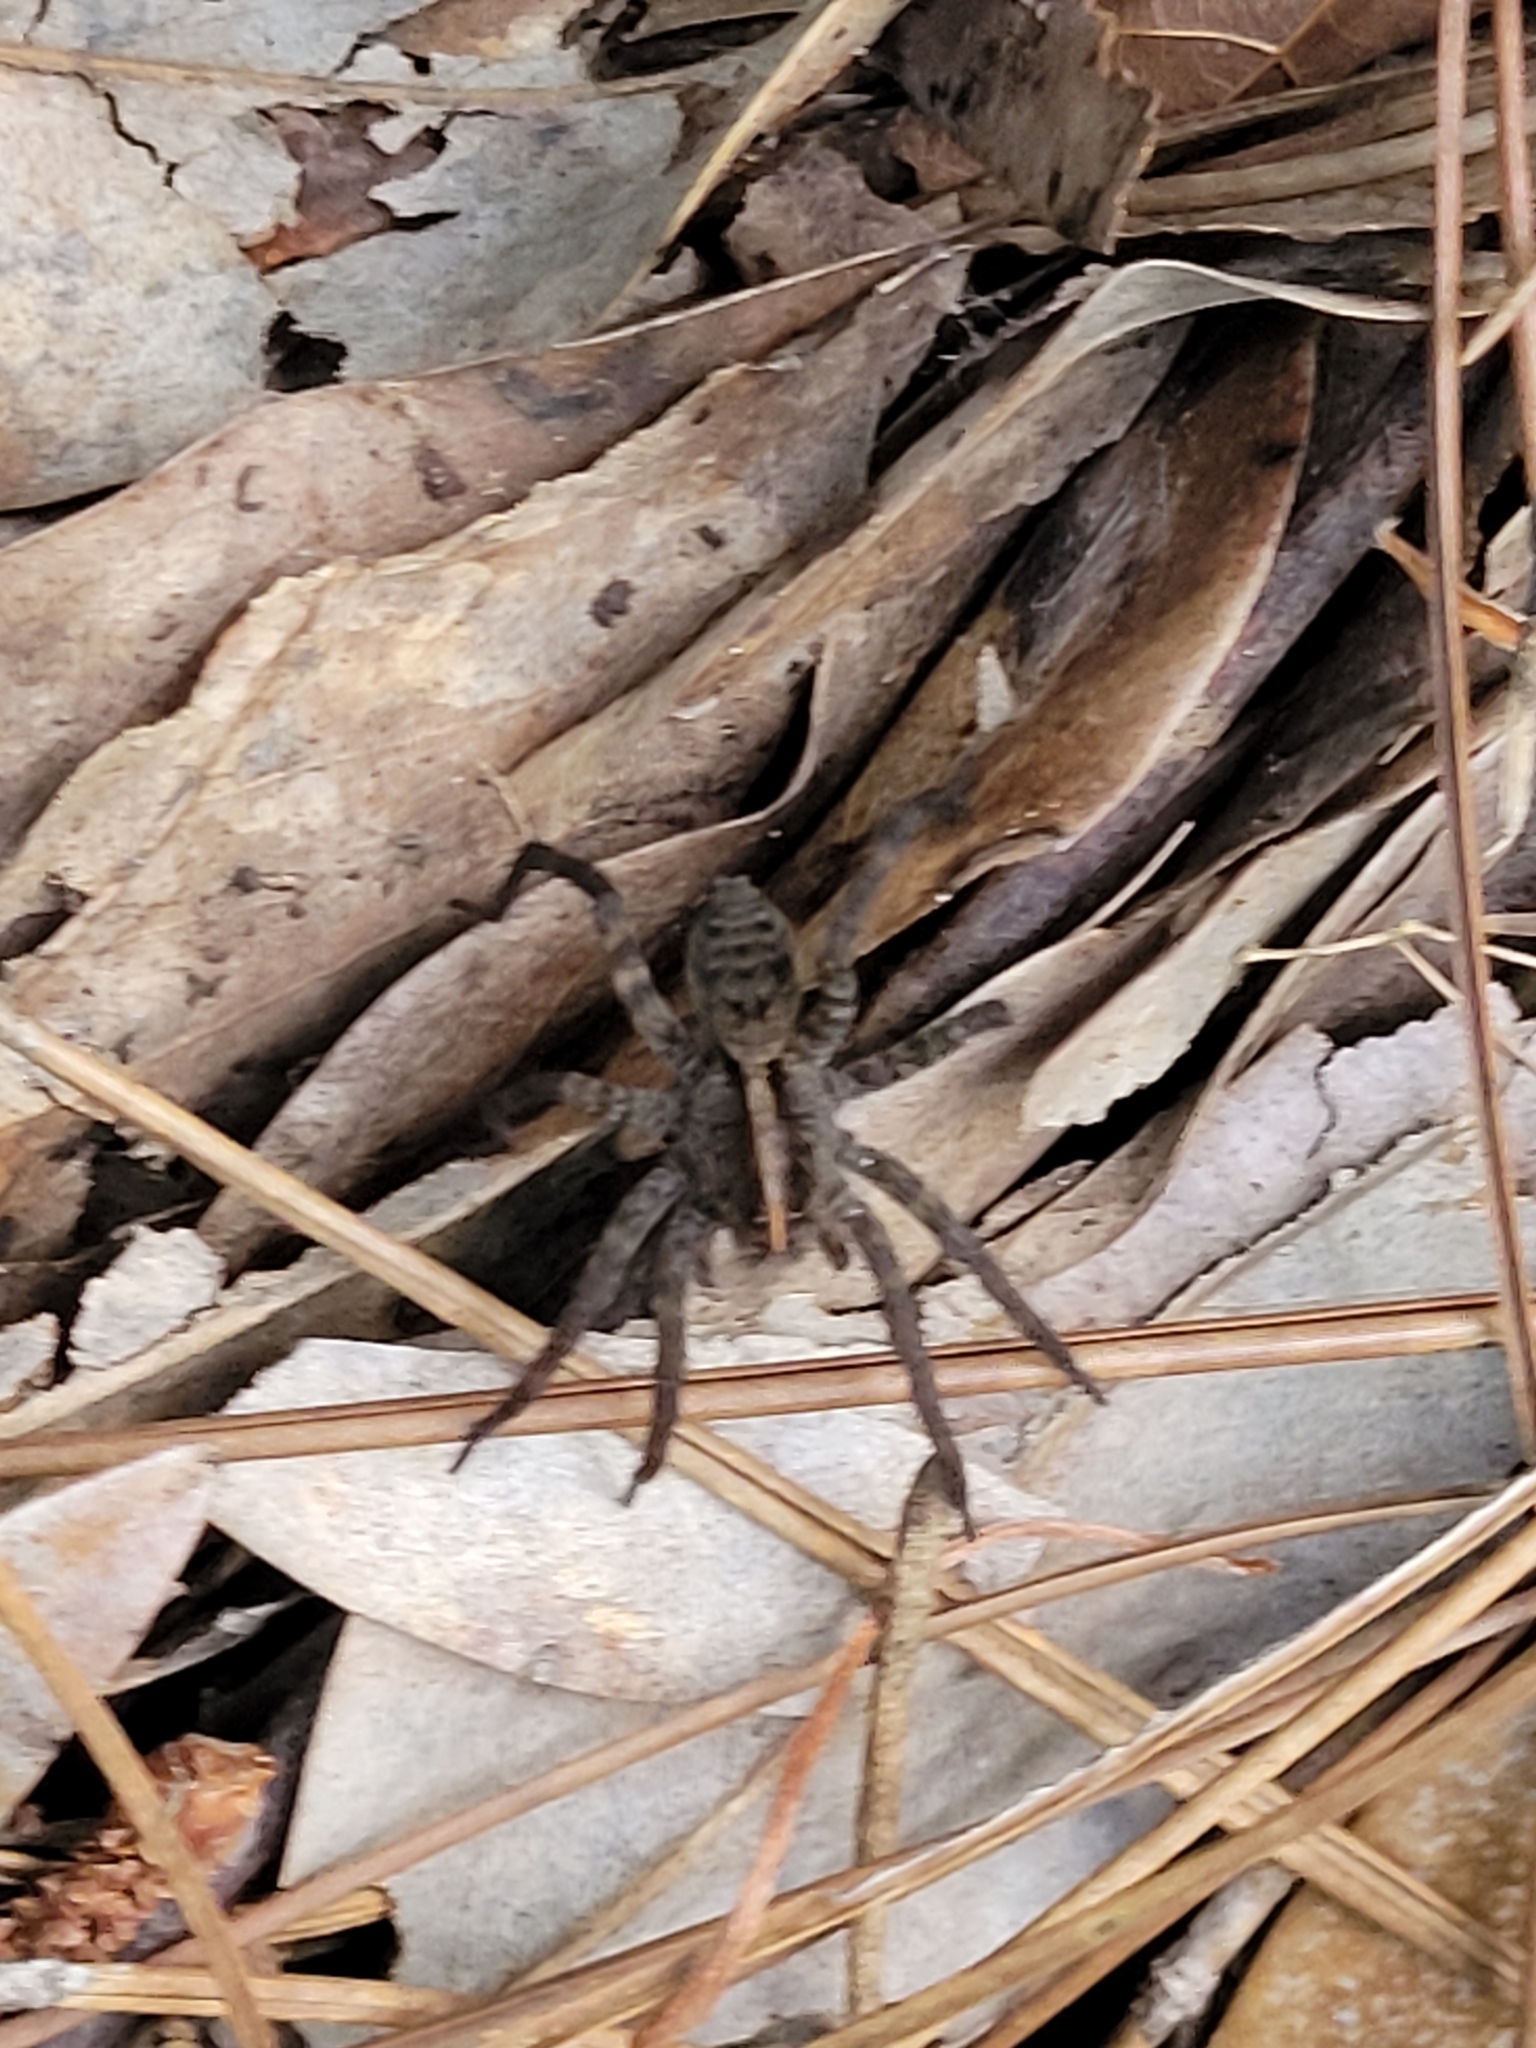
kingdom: Animalia
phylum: Arthropoda
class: Arachnida
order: Araneae
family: Lycosidae
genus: Tigrosa
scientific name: Tigrosa georgicola
